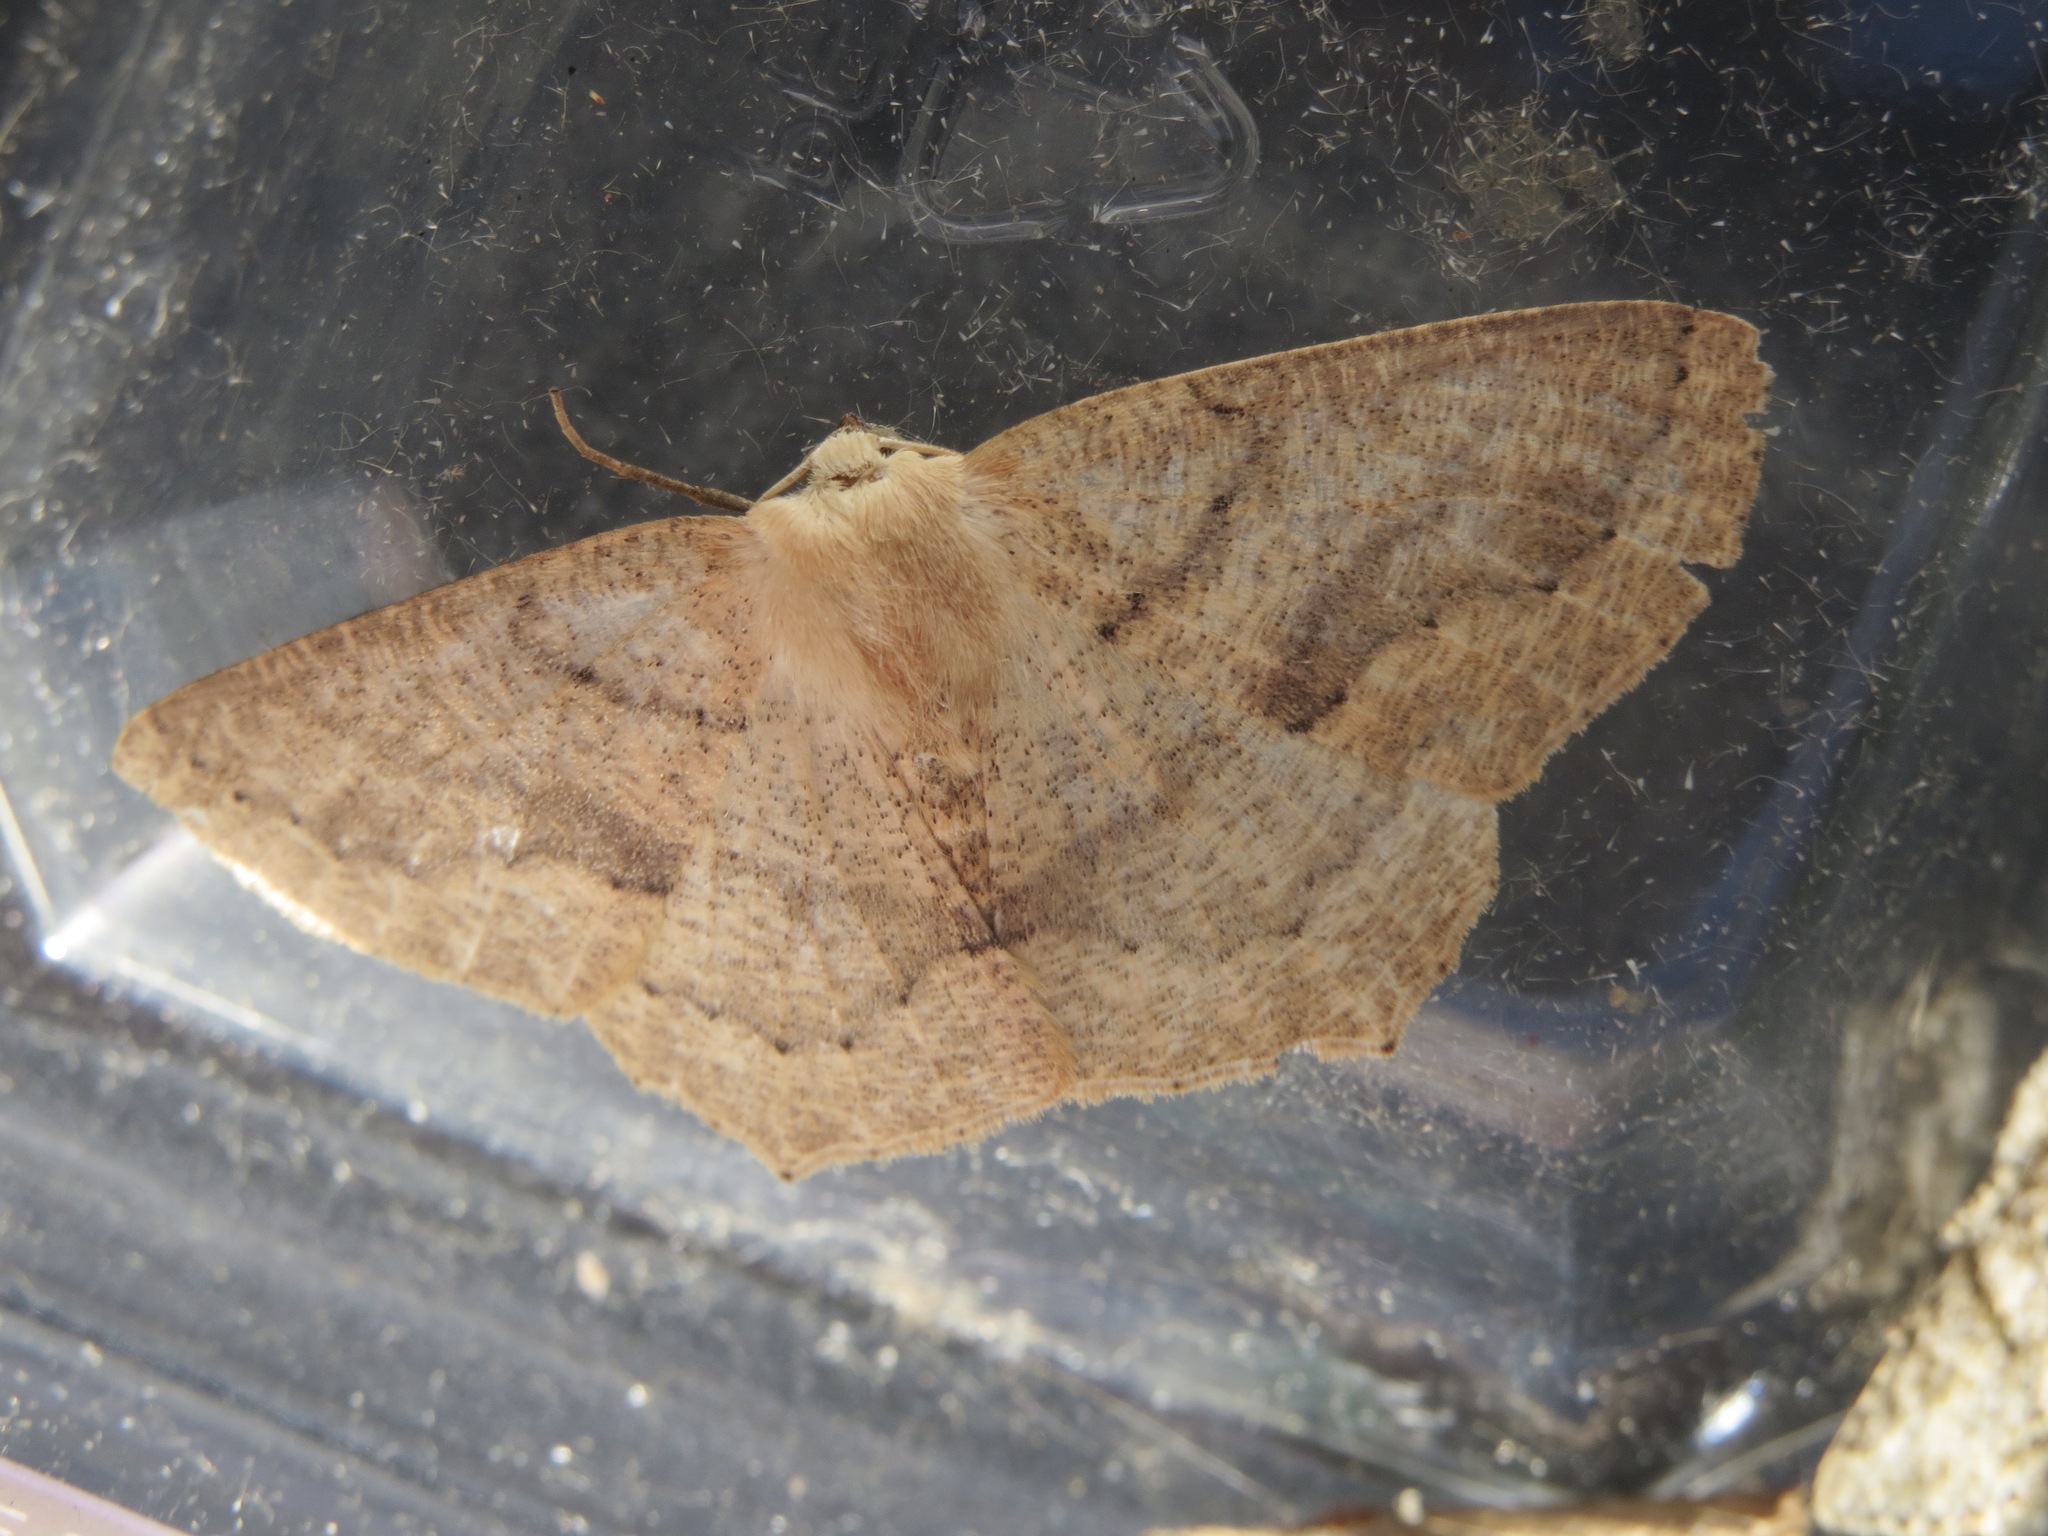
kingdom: Animalia
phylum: Arthropoda
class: Insecta
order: Lepidoptera
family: Geometridae
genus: Sabulodes
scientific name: Sabulodes aegrotata
